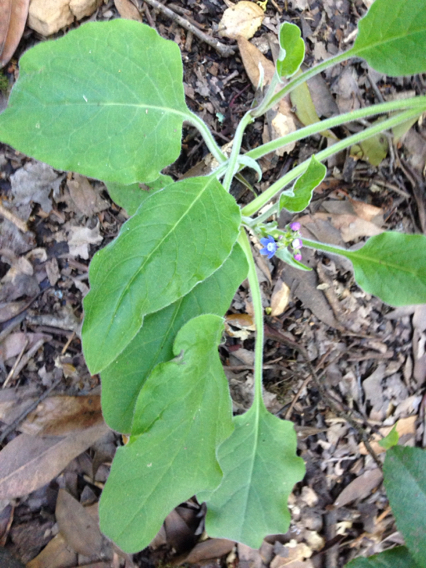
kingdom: Plantae
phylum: Tracheophyta
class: Magnoliopsida
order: Boraginales
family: Boraginaceae
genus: Adelinia
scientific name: Adelinia grande
